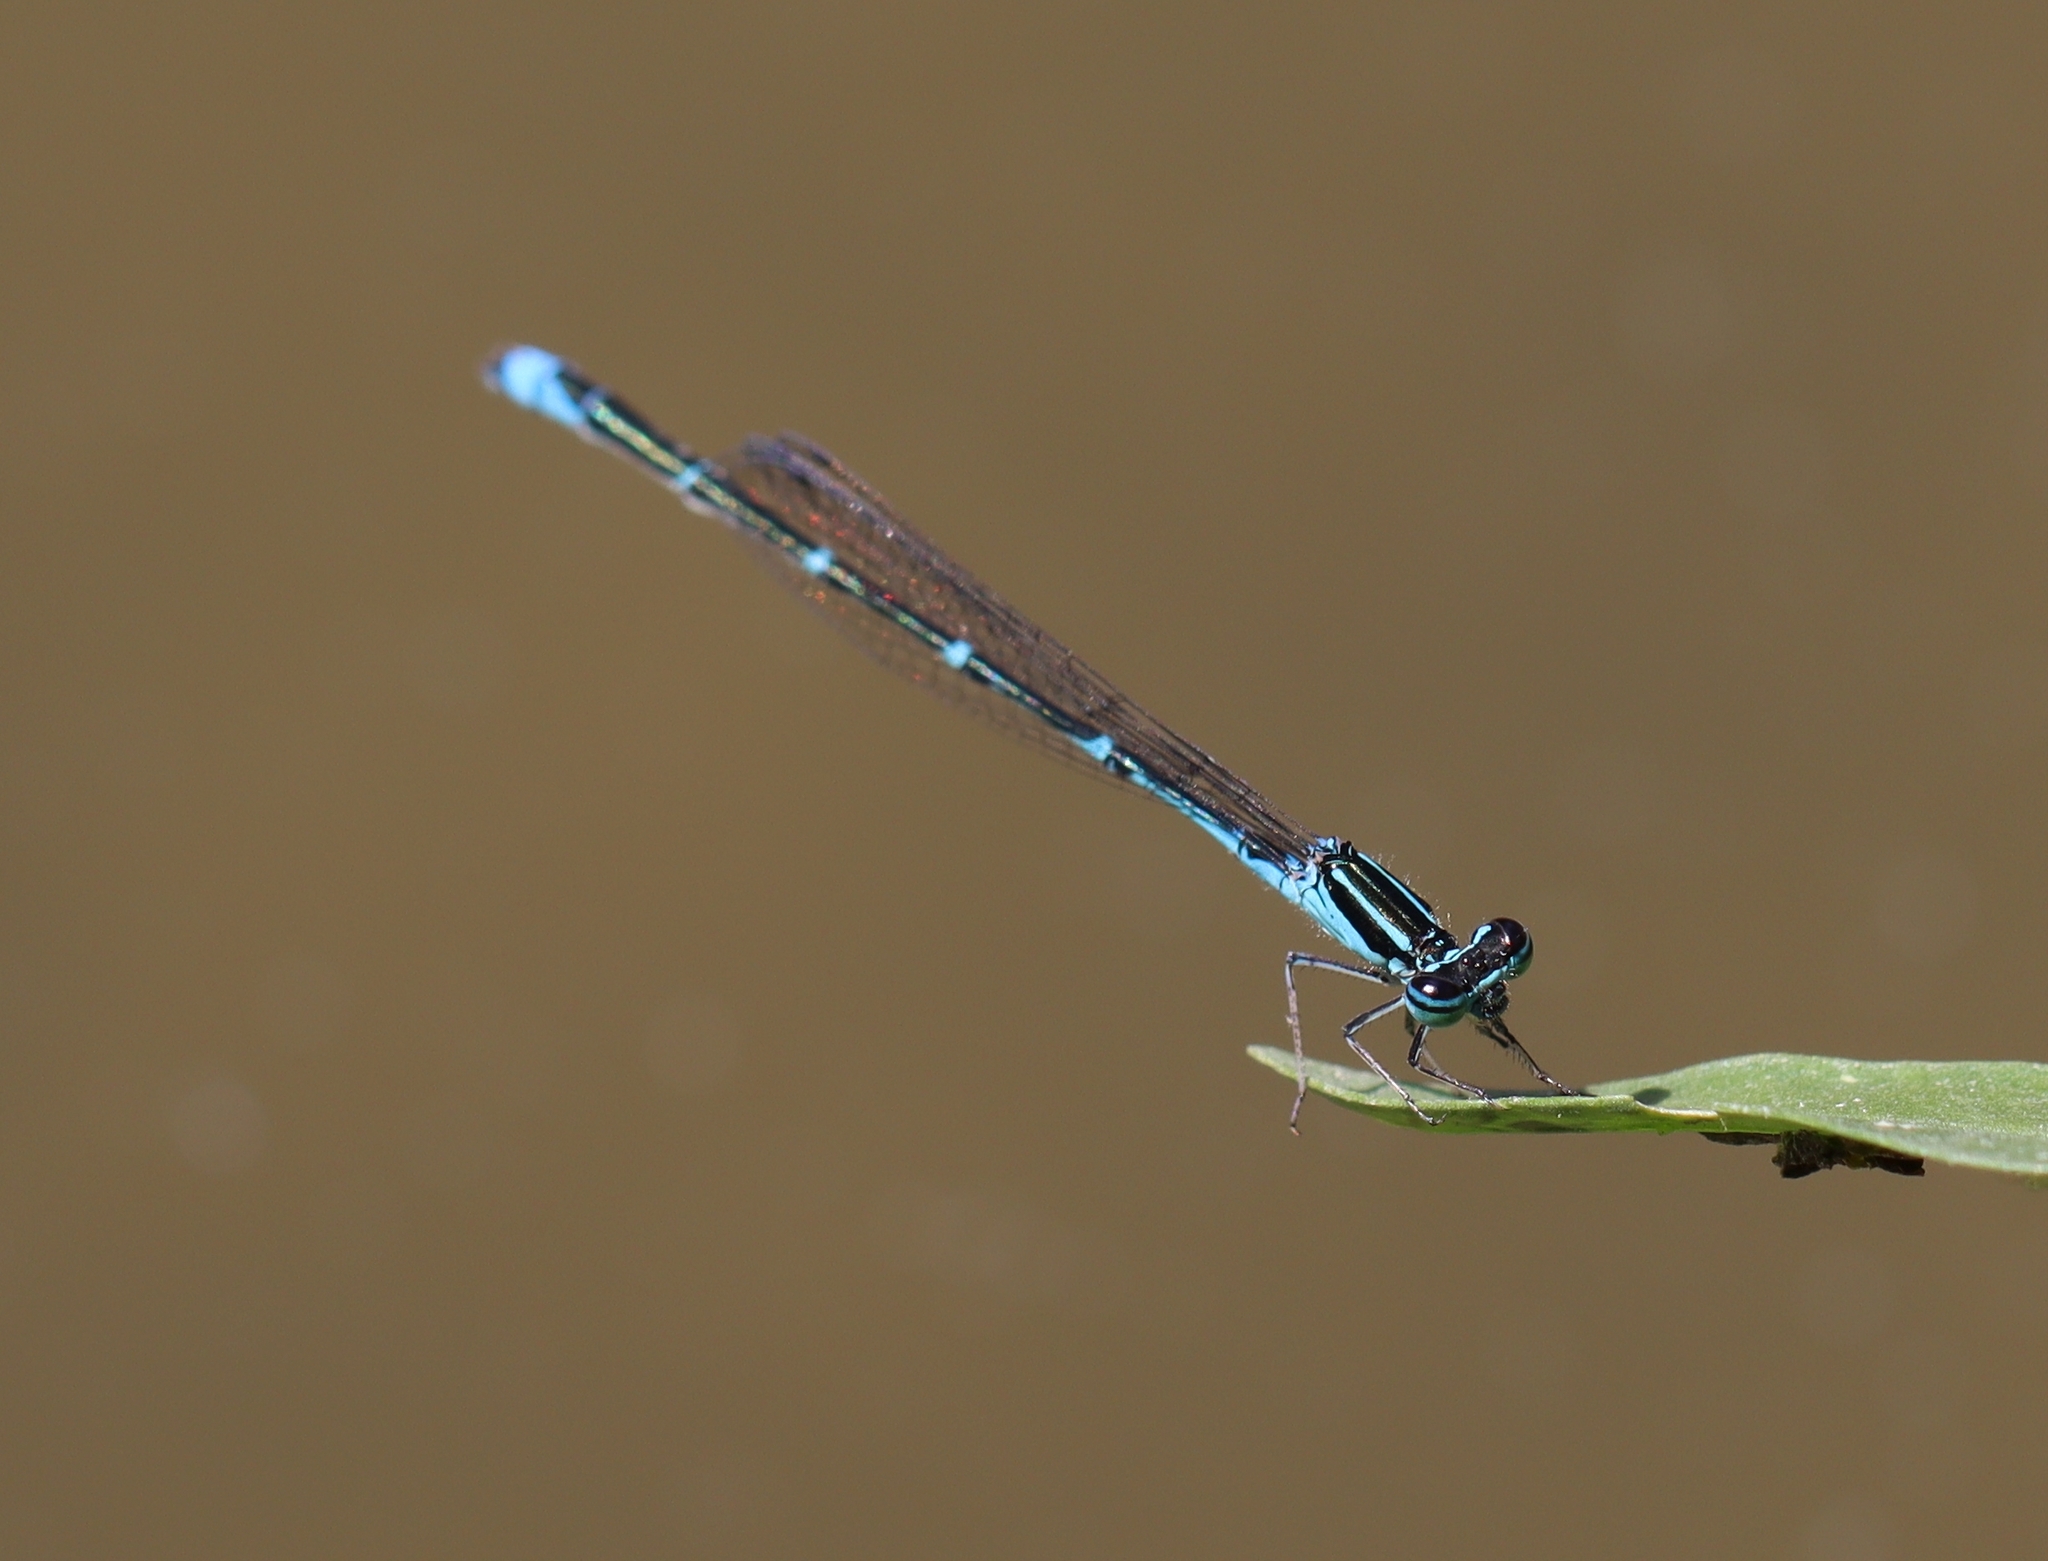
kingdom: Animalia
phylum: Arthropoda
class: Insecta
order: Odonata
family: Coenagrionidae
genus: Enallagma
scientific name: Enallagma exsulans
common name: Stream bluet
